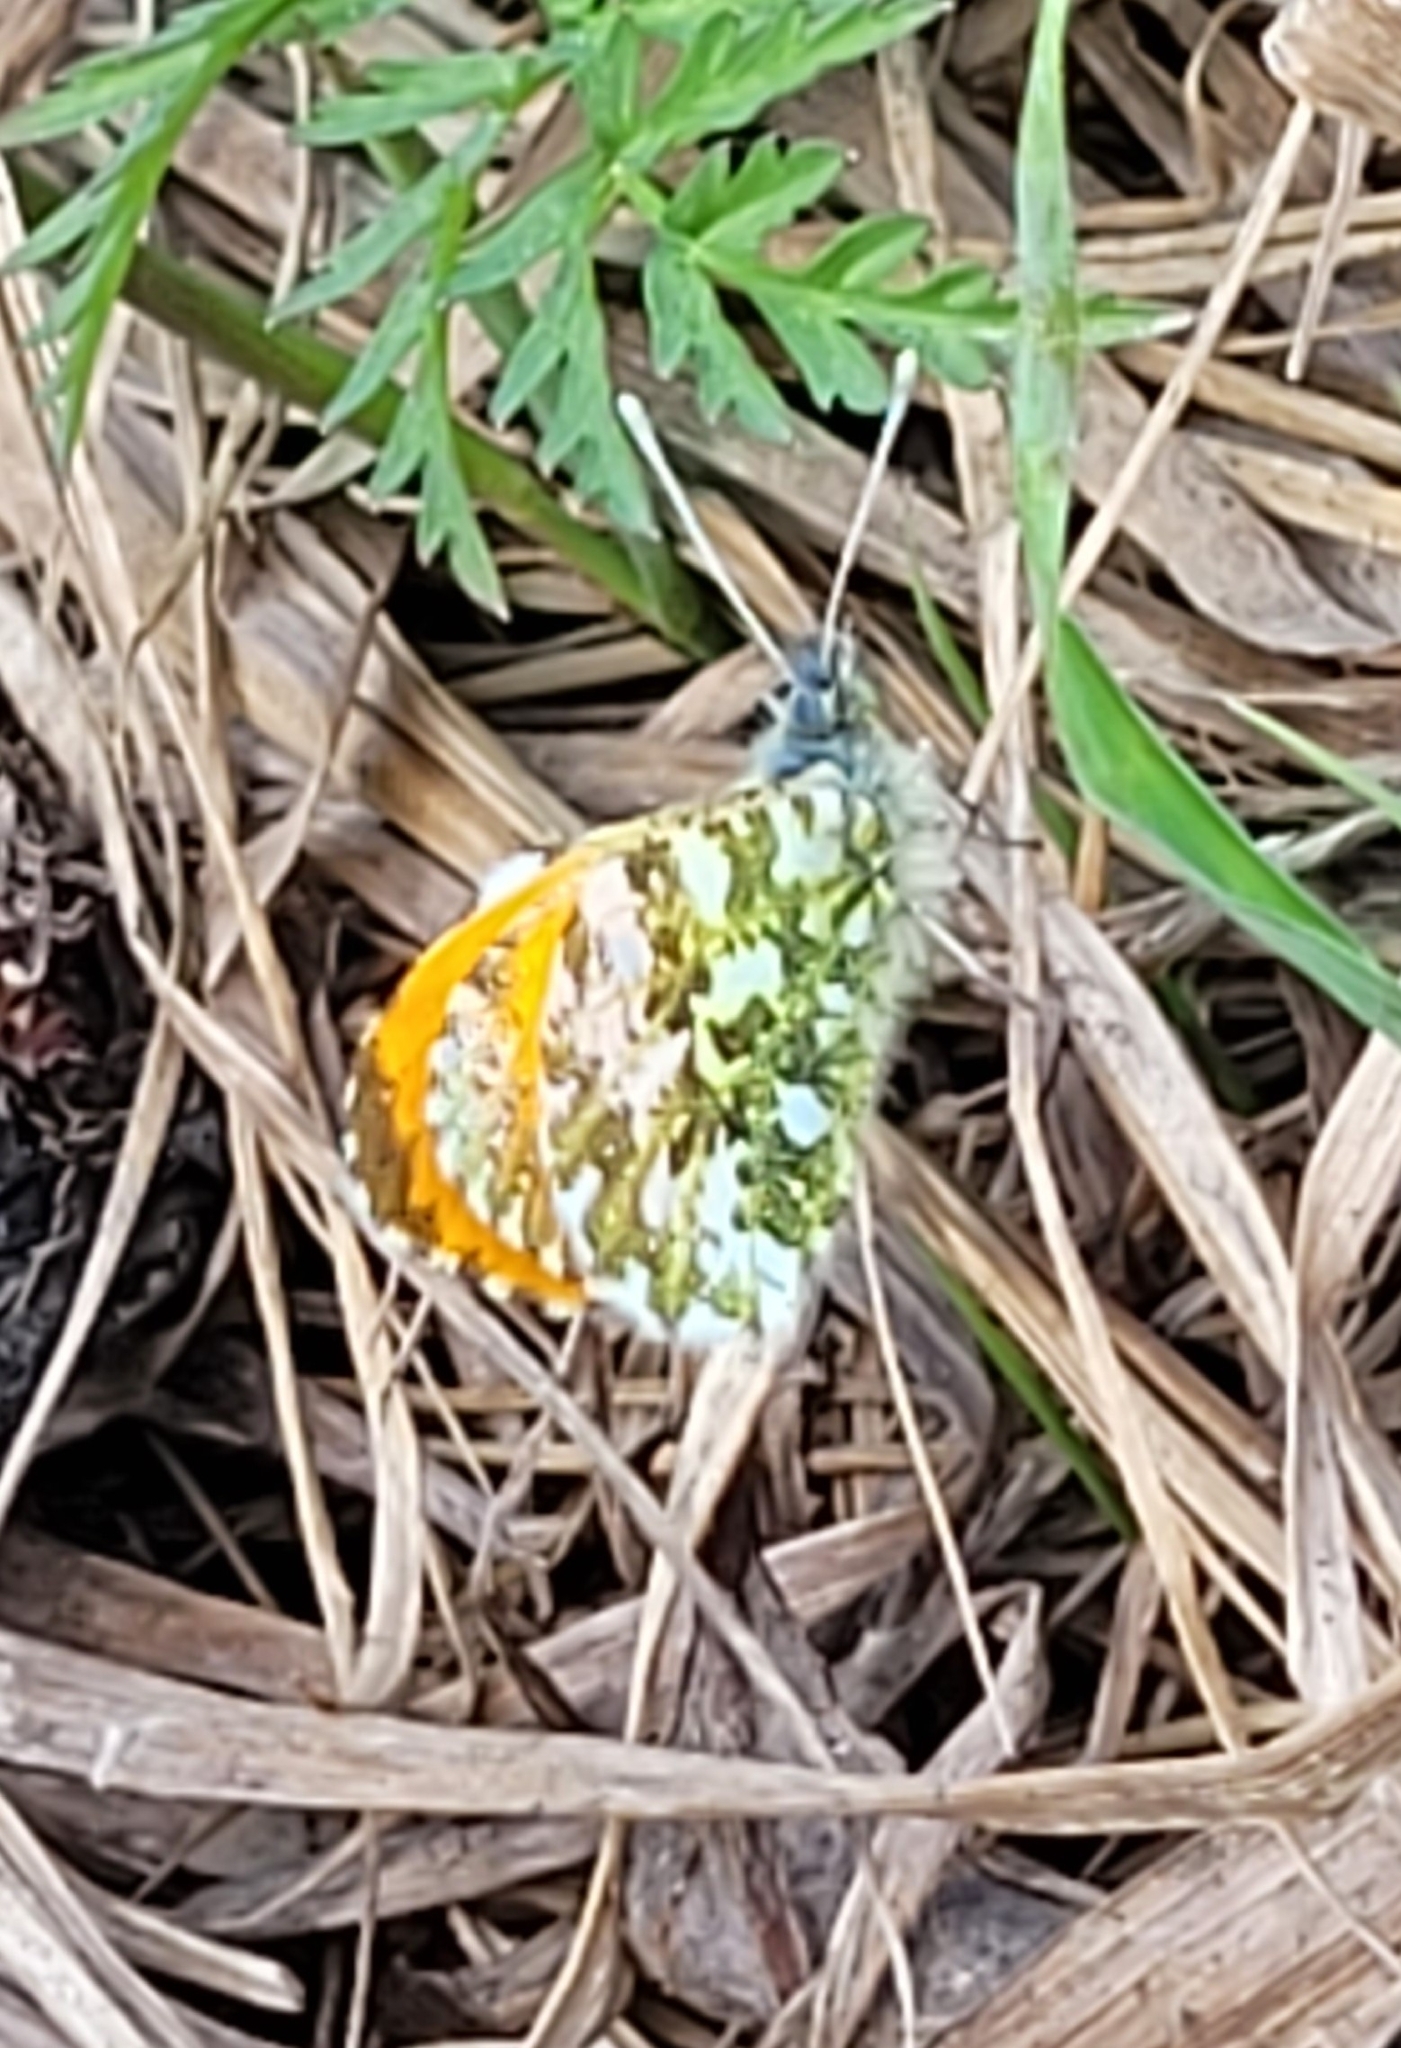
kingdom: Animalia
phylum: Arthropoda
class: Insecta
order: Lepidoptera
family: Pieridae
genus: Anthocharis
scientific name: Anthocharis cardamines
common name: Orange-tip
